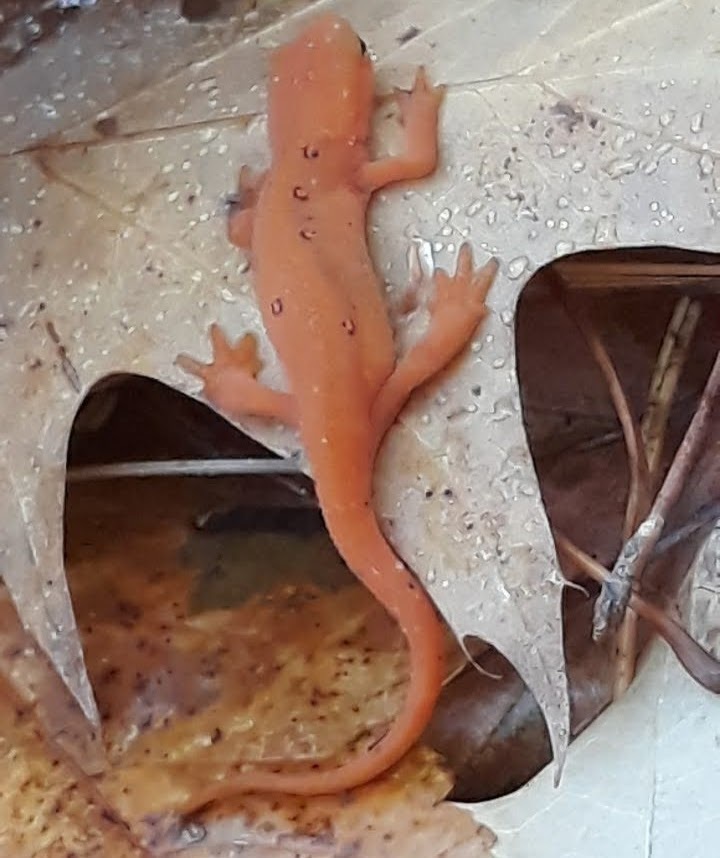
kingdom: Animalia
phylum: Chordata
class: Amphibia
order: Caudata
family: Salamandridae
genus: Notophthalmus
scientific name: Notophthalmus viridescens
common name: Eastern newt
